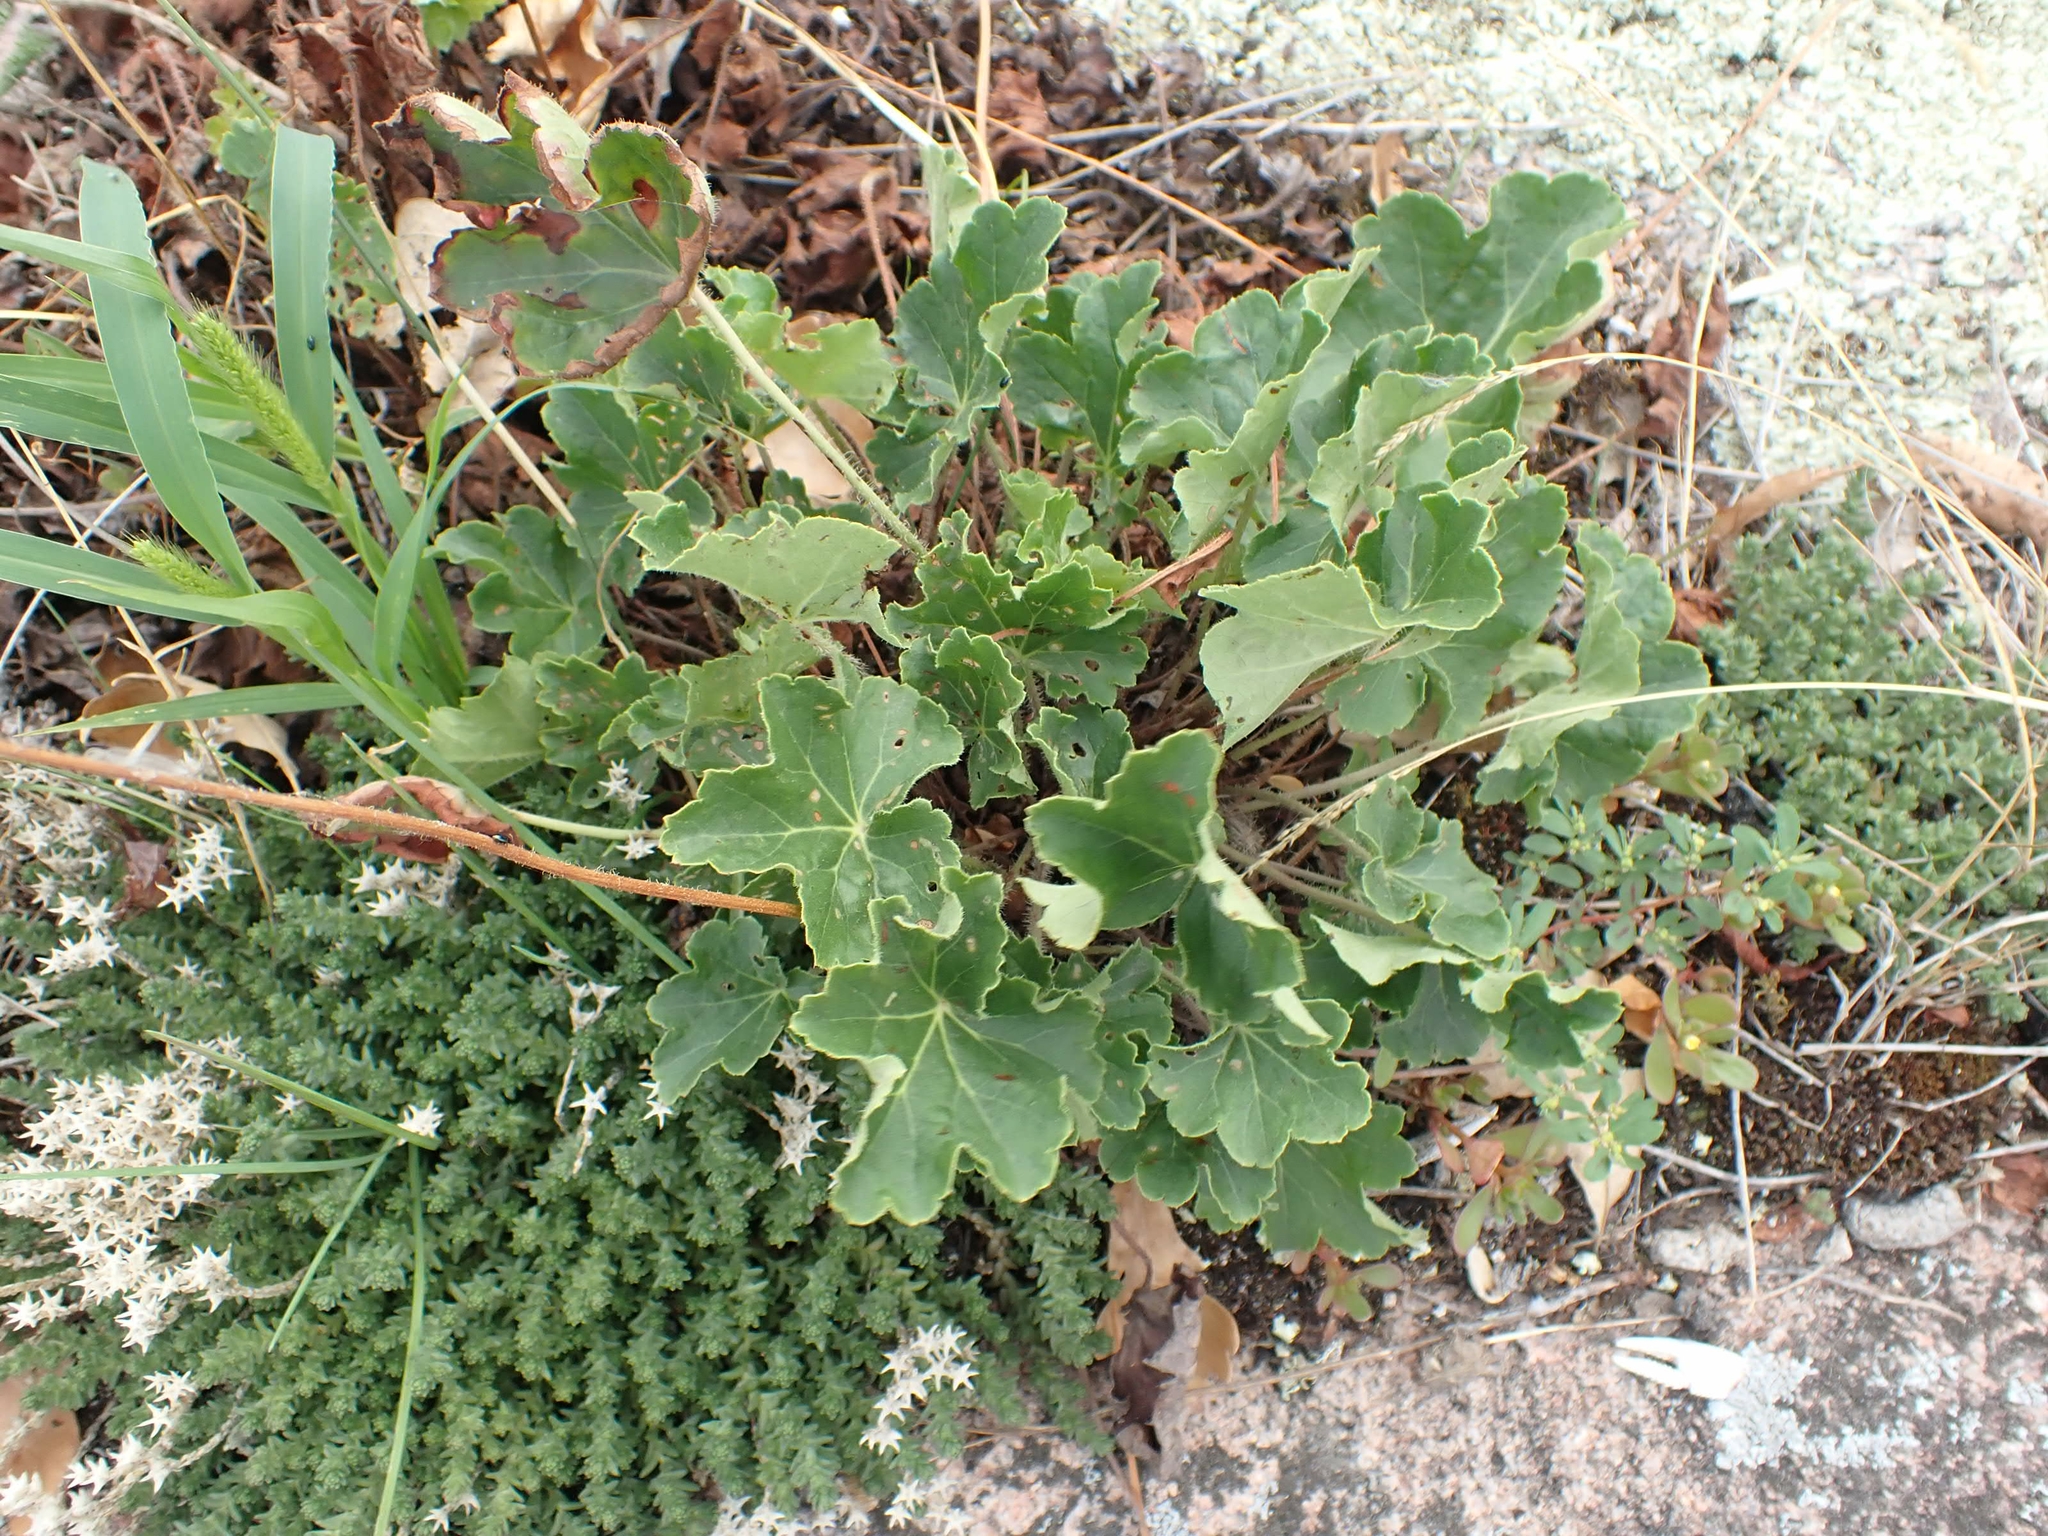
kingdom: Plantae
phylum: Tracheophyta
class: Magnoliopsida
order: Saxifragales
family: Saxifragaceae
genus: Heuchera
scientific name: Heuchera richardsonii
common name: Richardson's alumroot
